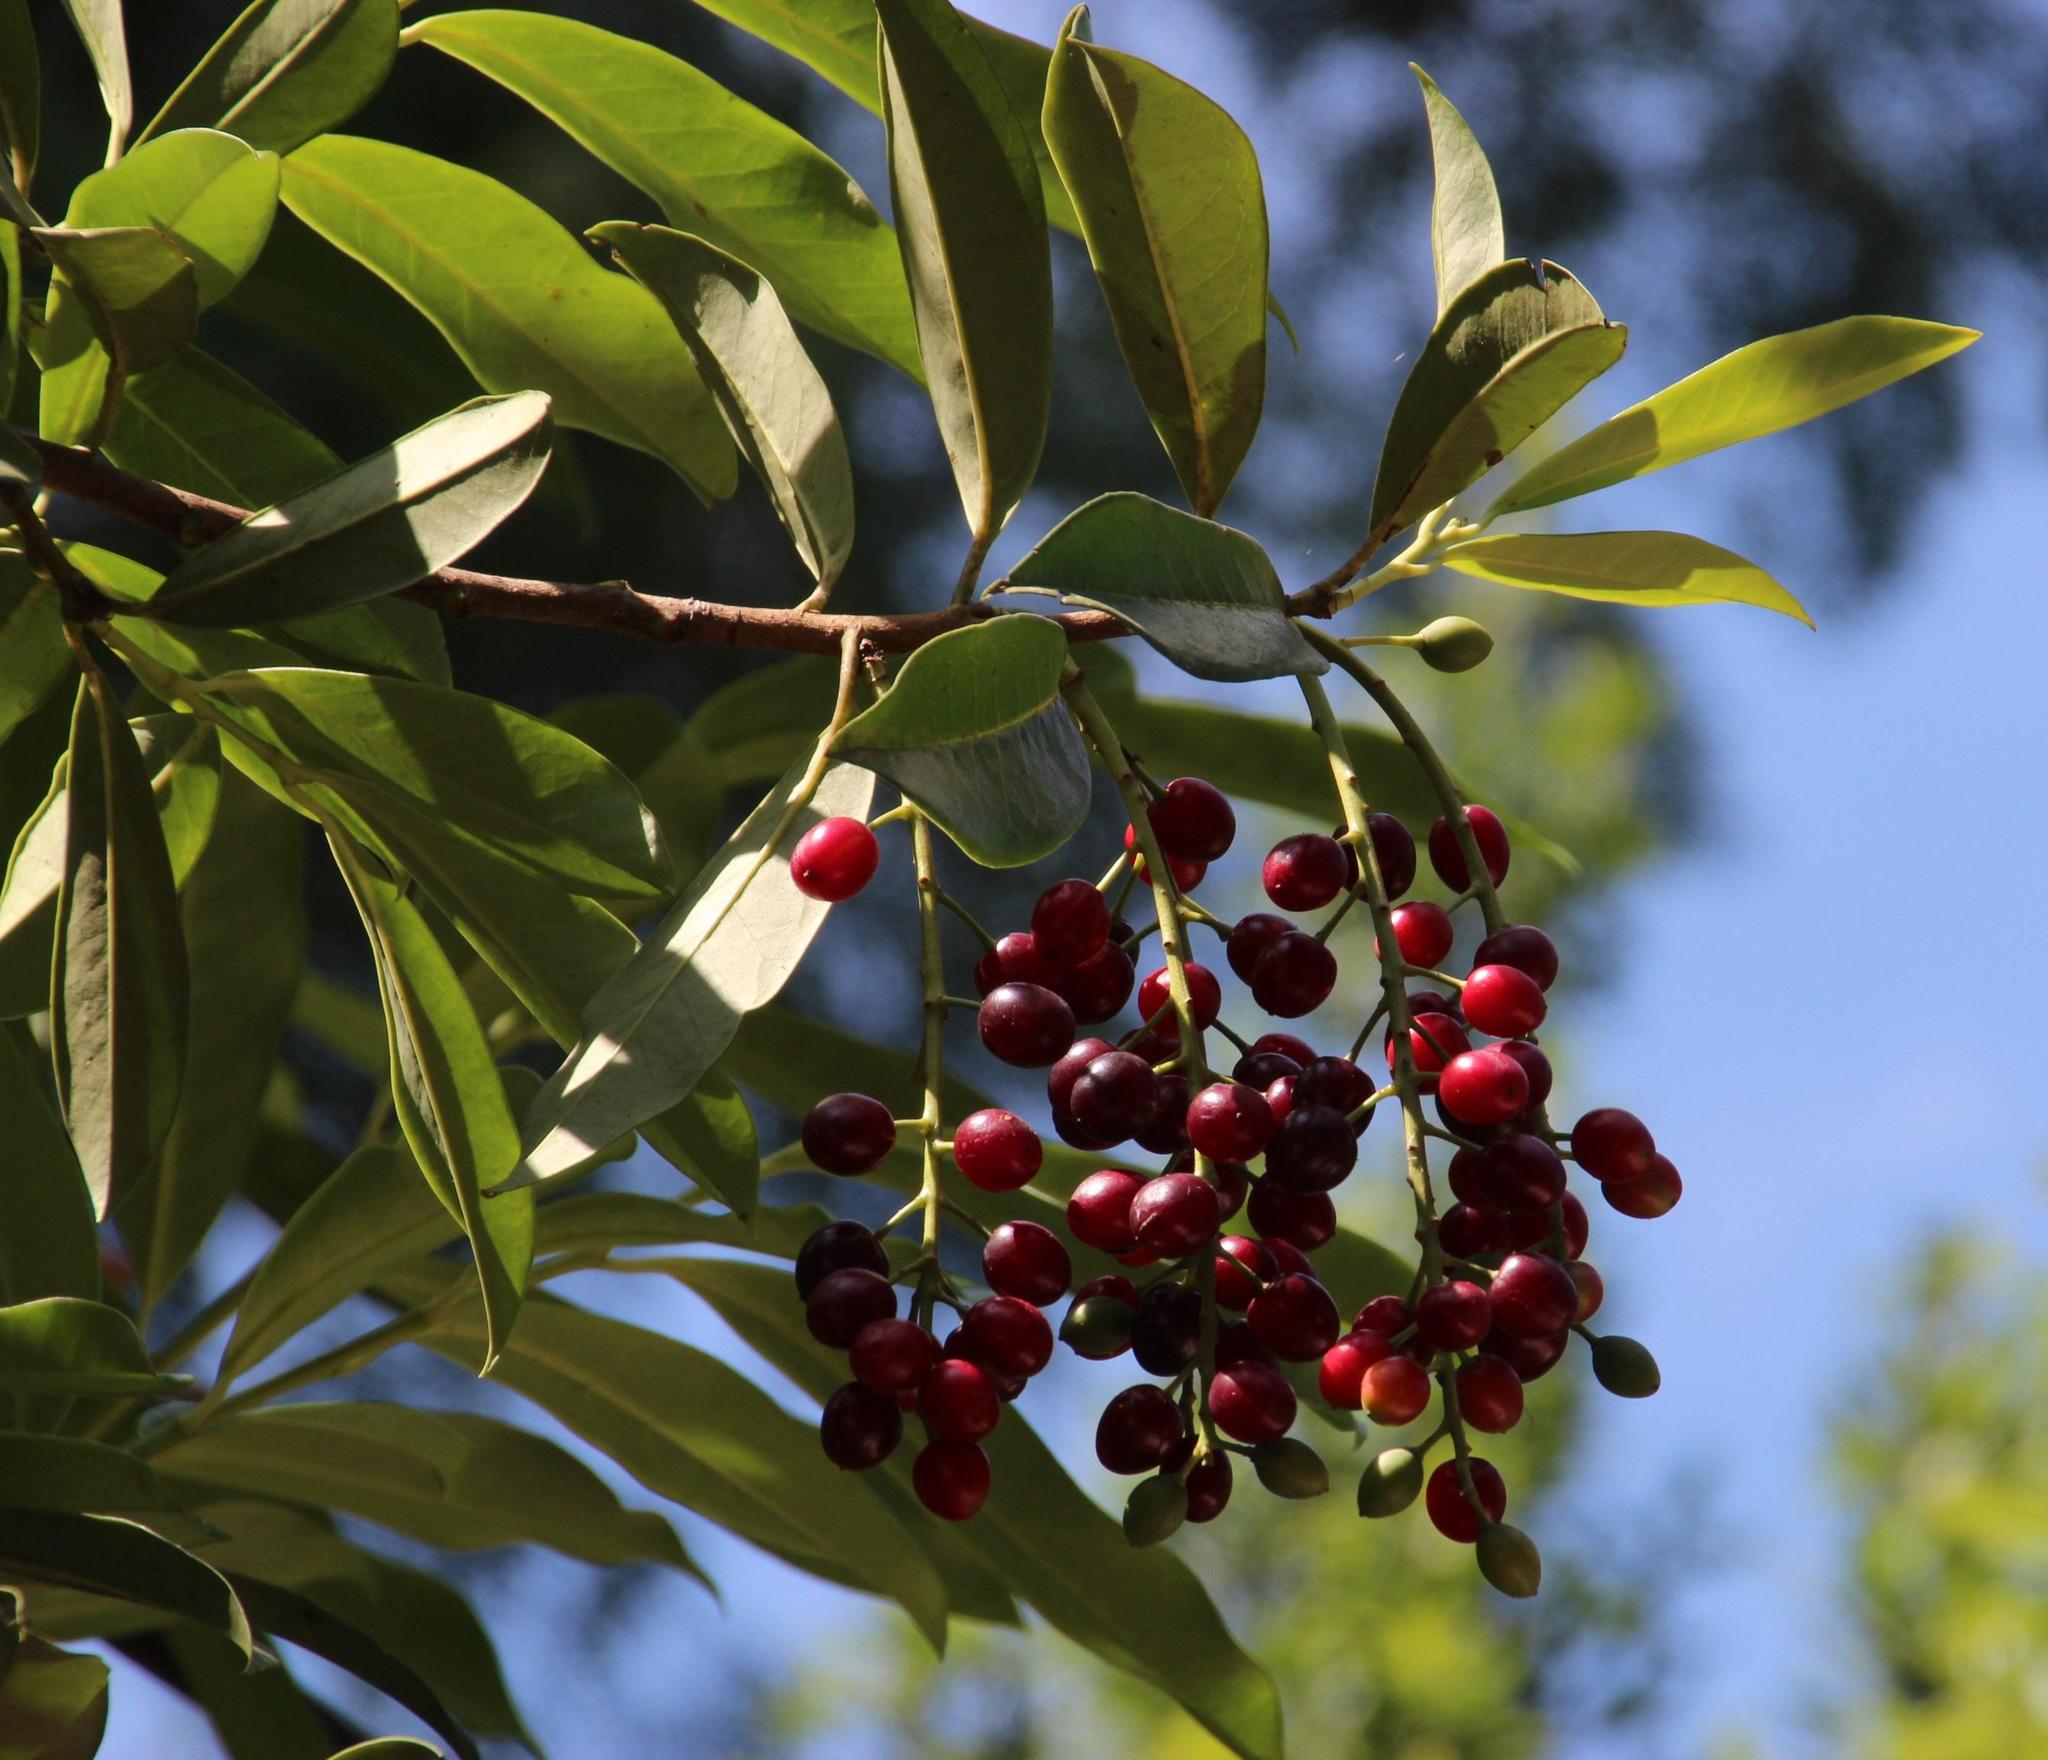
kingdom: Plantae
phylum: Tracheophyta
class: Magnoliopsida
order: Rosales
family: Rosaceae
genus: Prunus
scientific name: Prunus laurocerasus
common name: Cherry laurel
